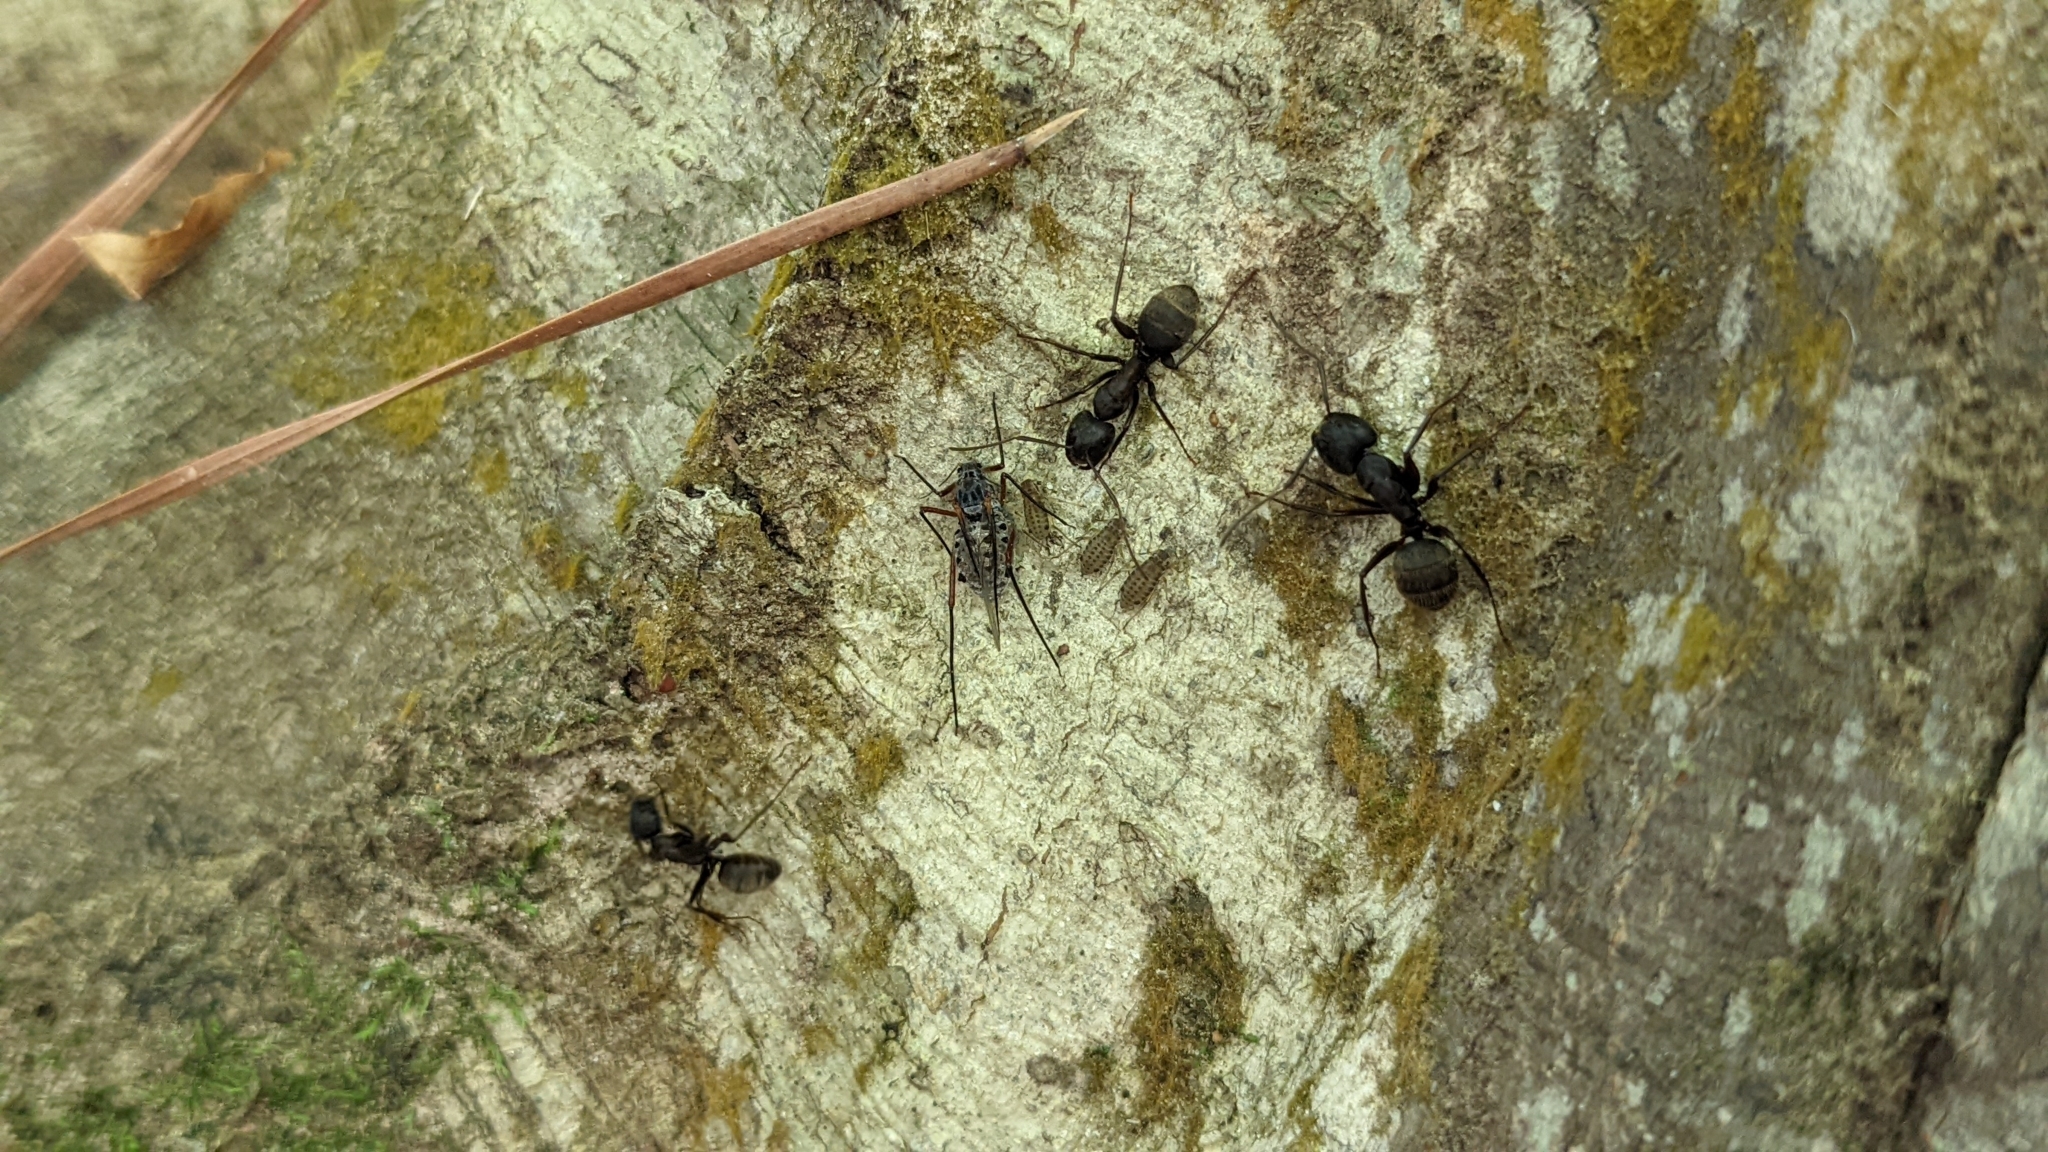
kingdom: Animalia
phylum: Arthropoda
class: Insecta
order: Hymenoptera
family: Formicidae
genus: Camponotus
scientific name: Camponotus pennsylvanicus
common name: Black carpenter ant
